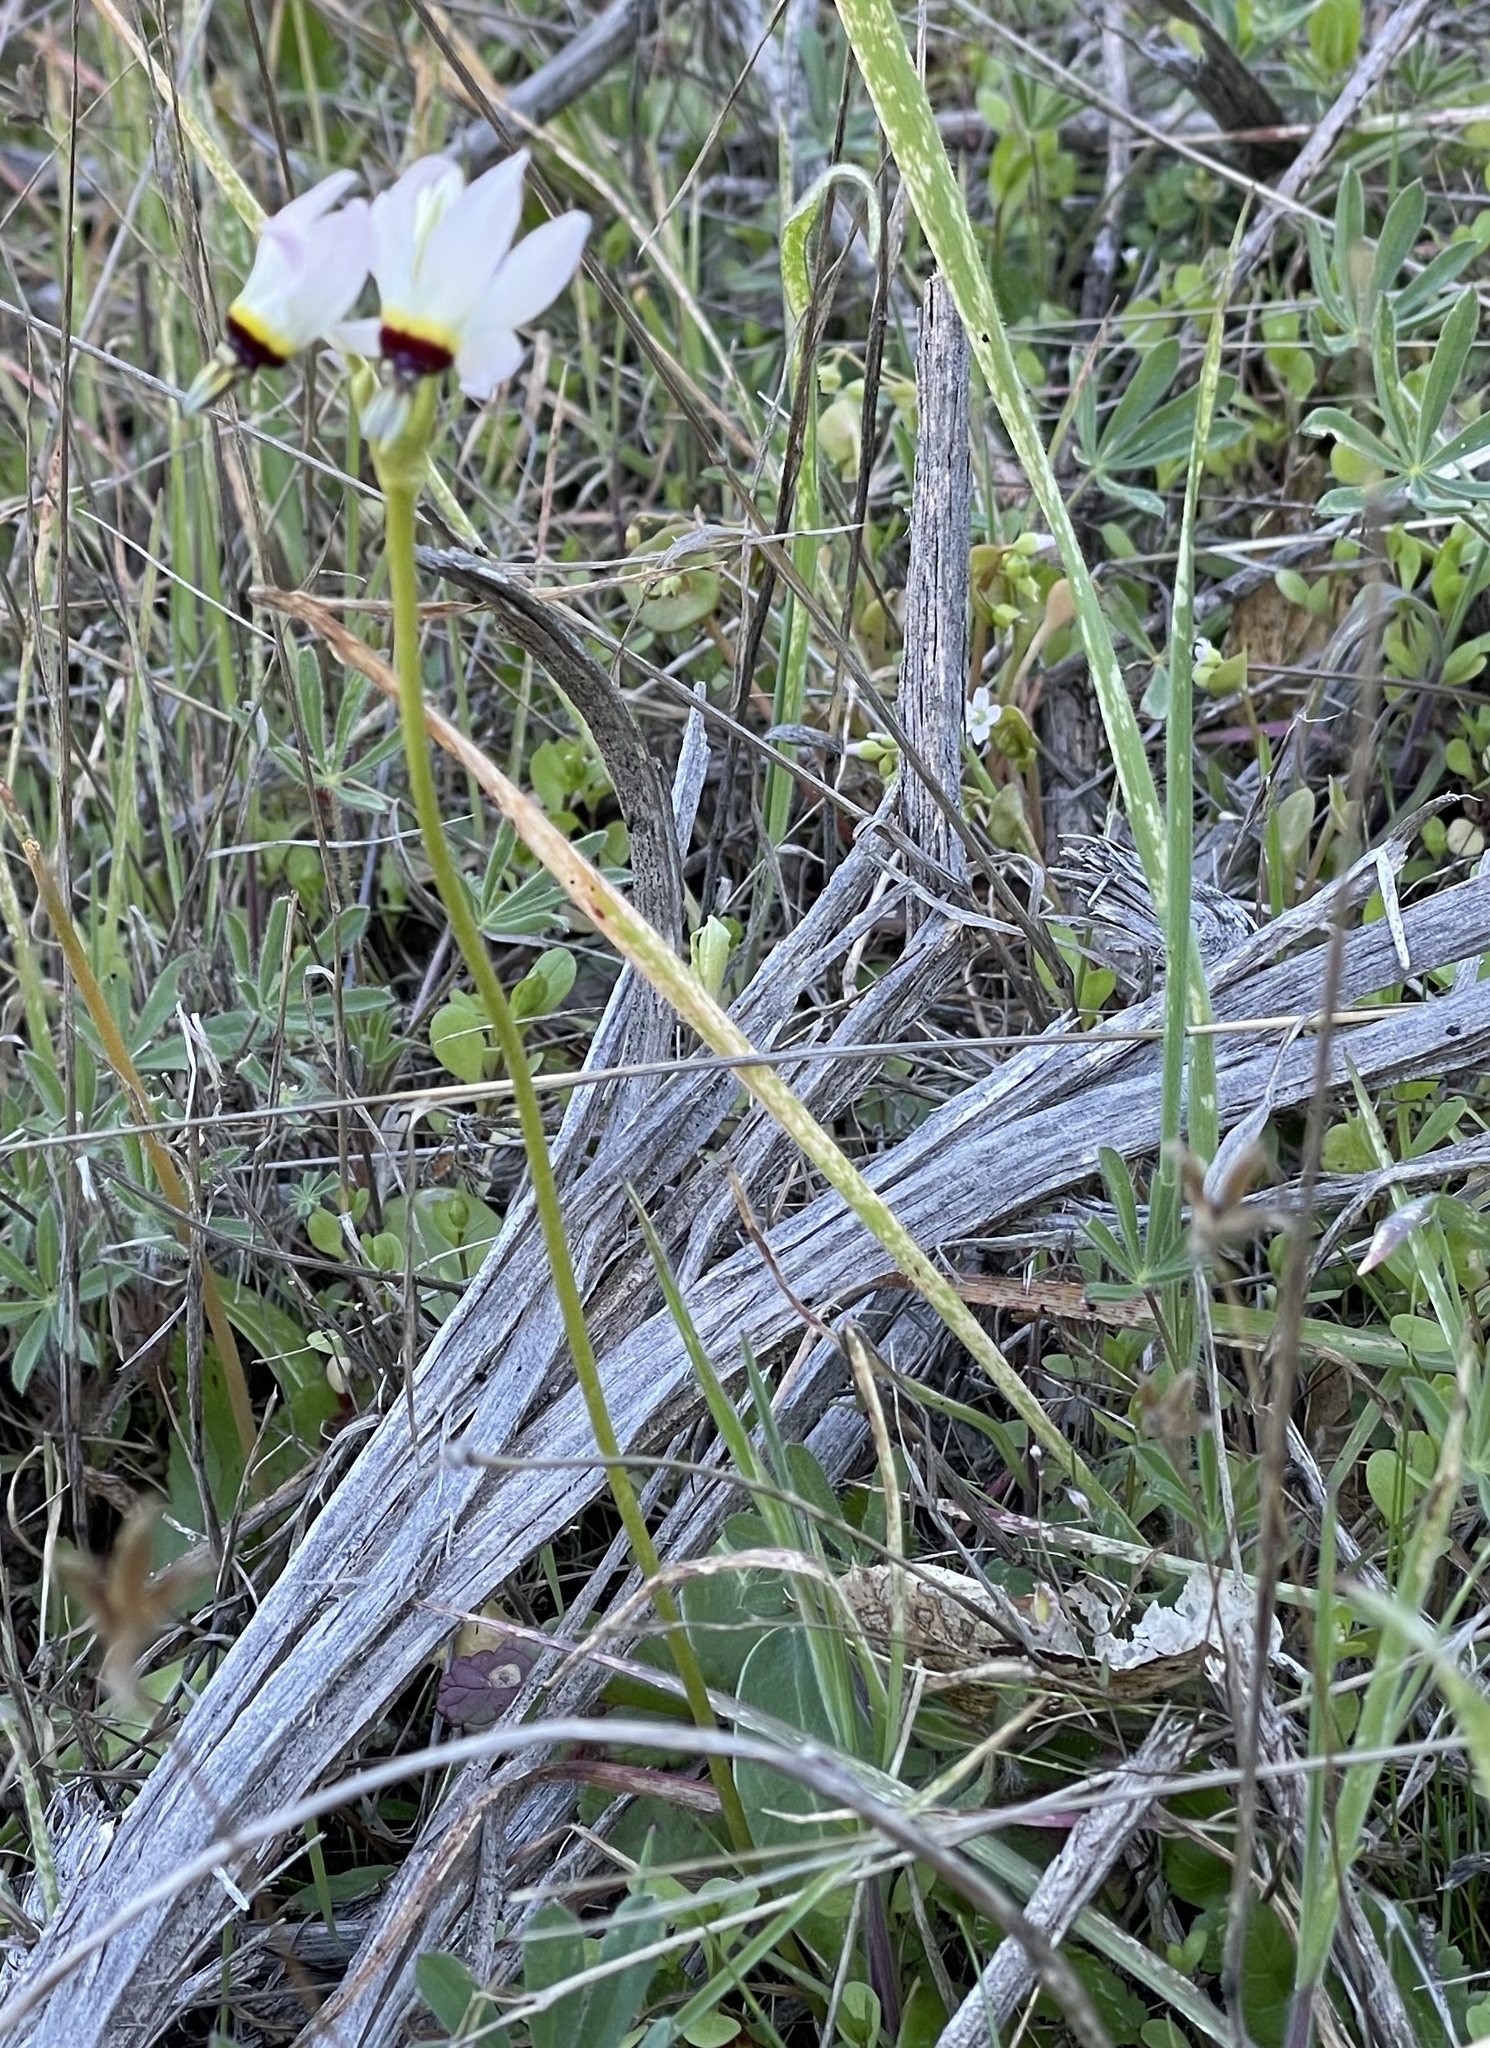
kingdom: Plantae
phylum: Tracheophyta
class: Magnoliopsida
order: Ericales
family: Primulaceae
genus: Dodecatheon
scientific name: Dodecatheon clevelandii
